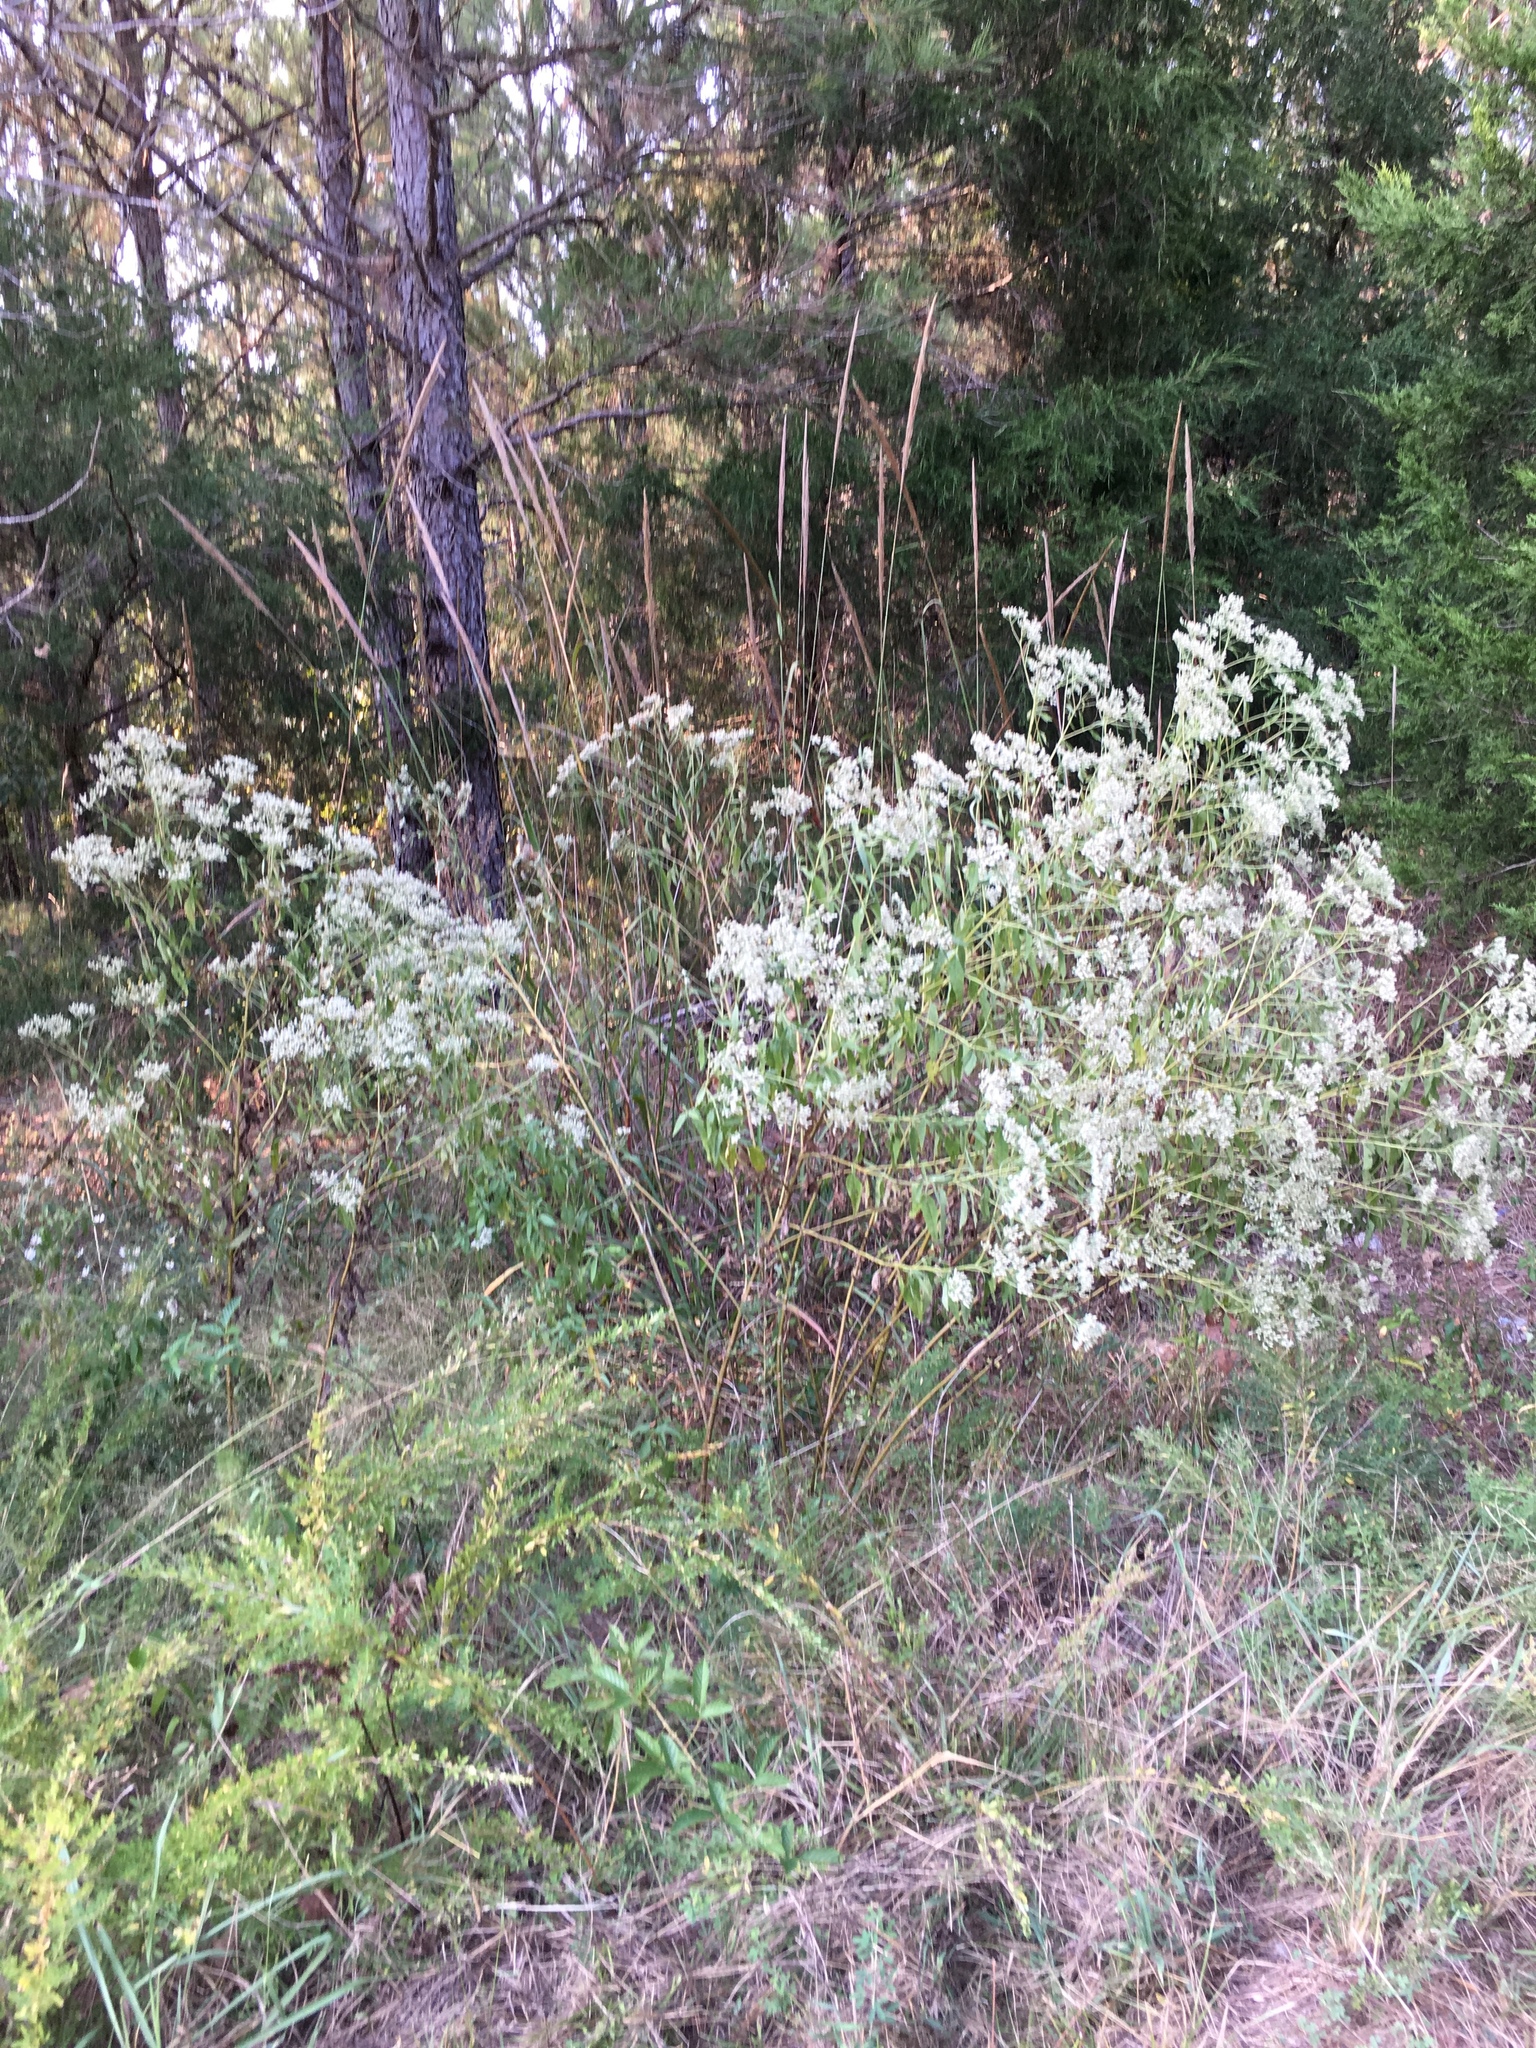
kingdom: Plantae
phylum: Tracheophyta
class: Magnoliopsida
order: Asterales
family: Asteraceae
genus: Eupatorium
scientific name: Eupatorium serotinum
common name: Late boneset
